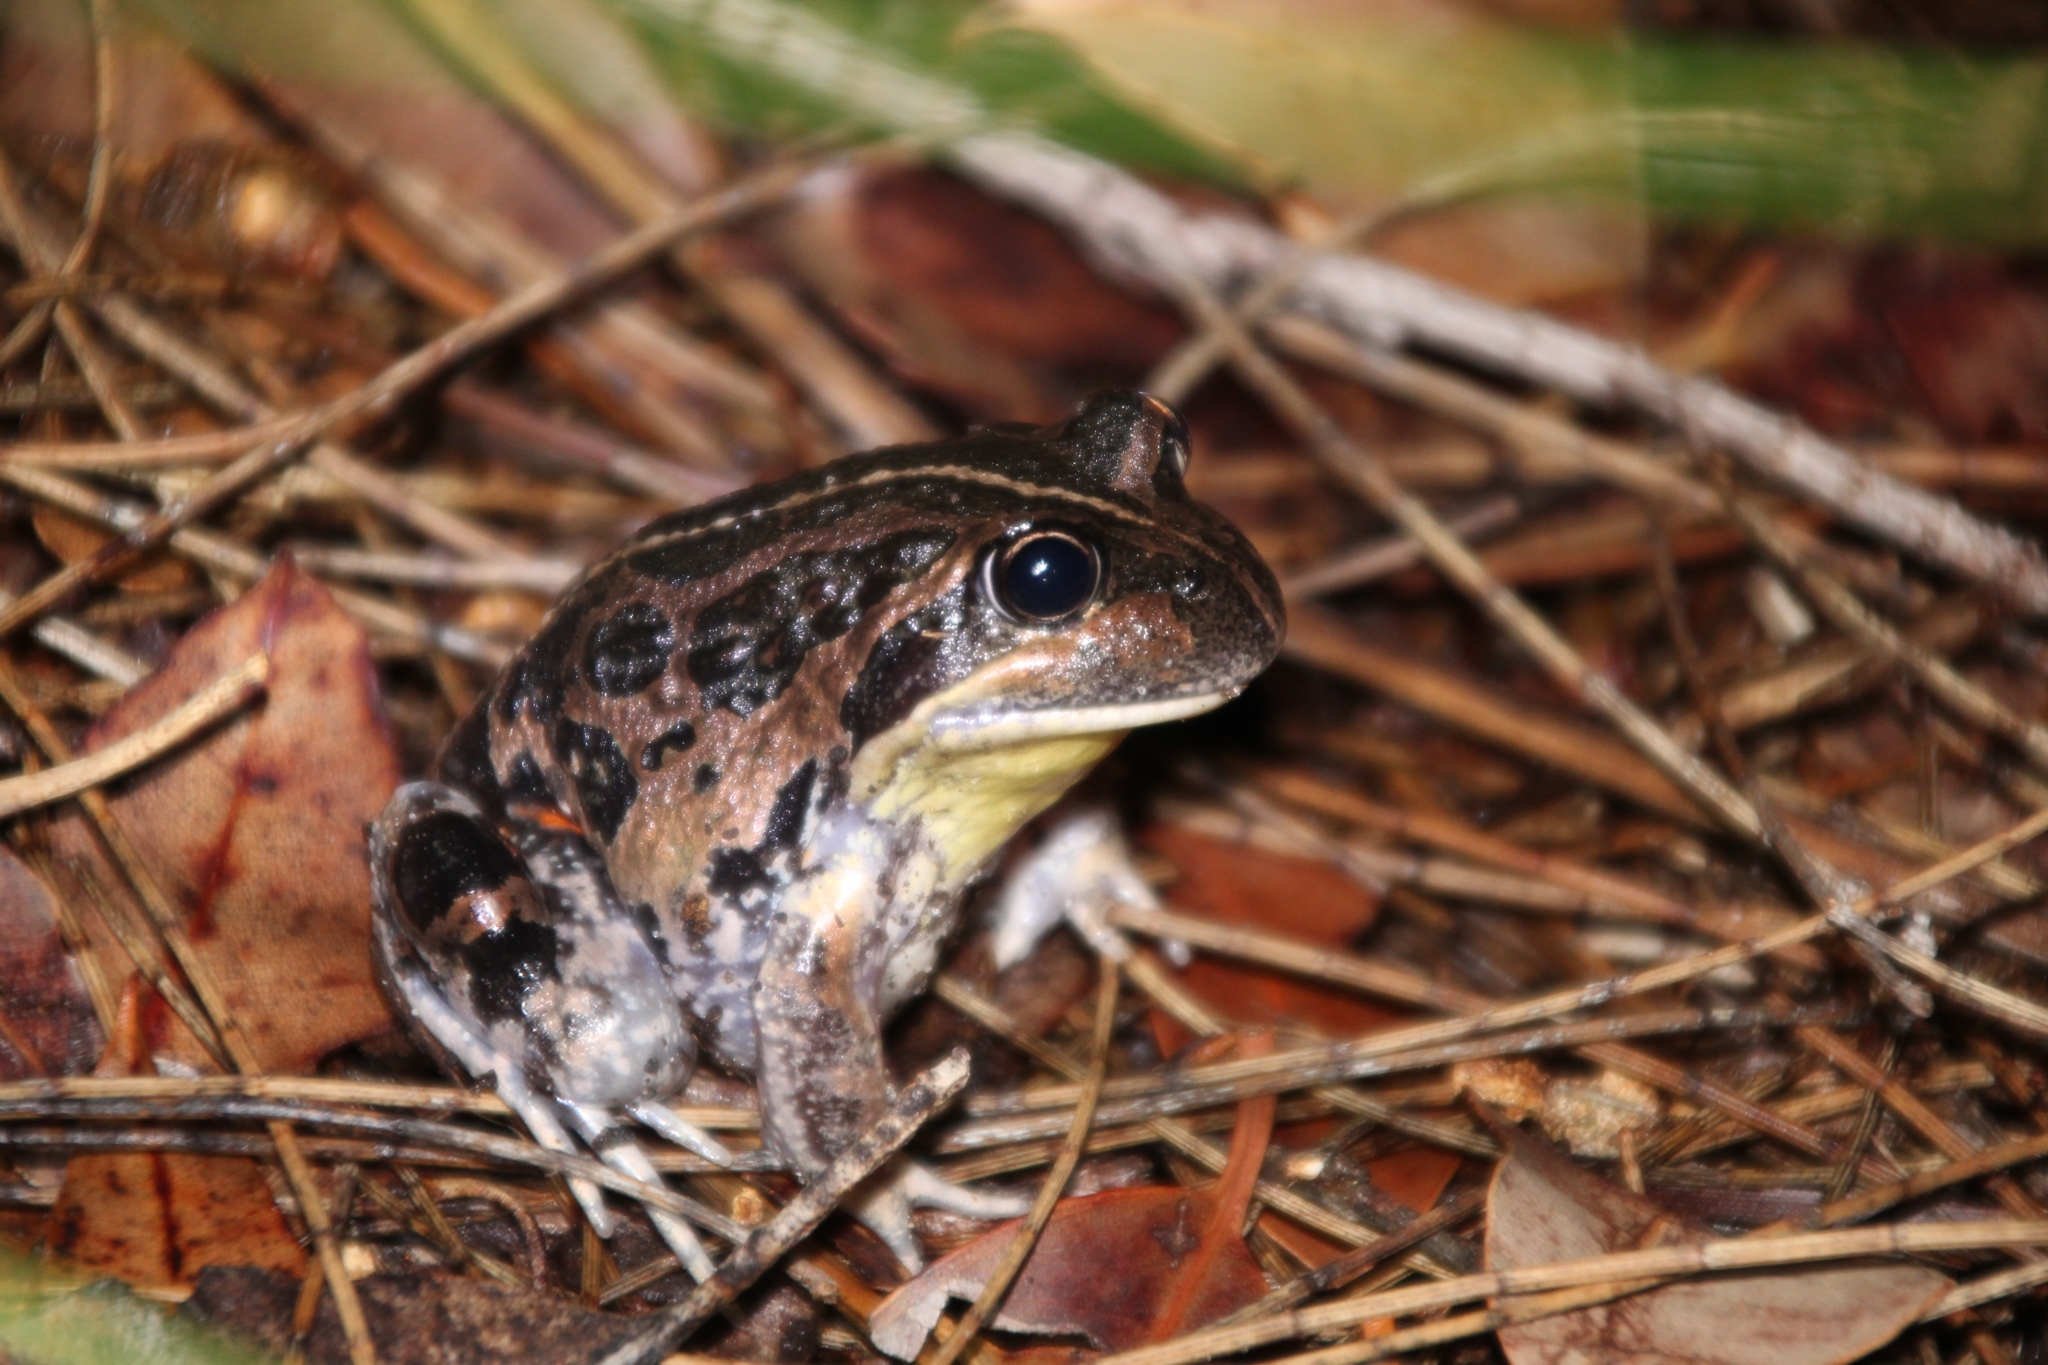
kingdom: Animalia
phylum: Chordata
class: Amphibia
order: Anura
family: Limnodynastidae
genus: Limnodynastes
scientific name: Limnodynastes dorsalis
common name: Banjo frog
